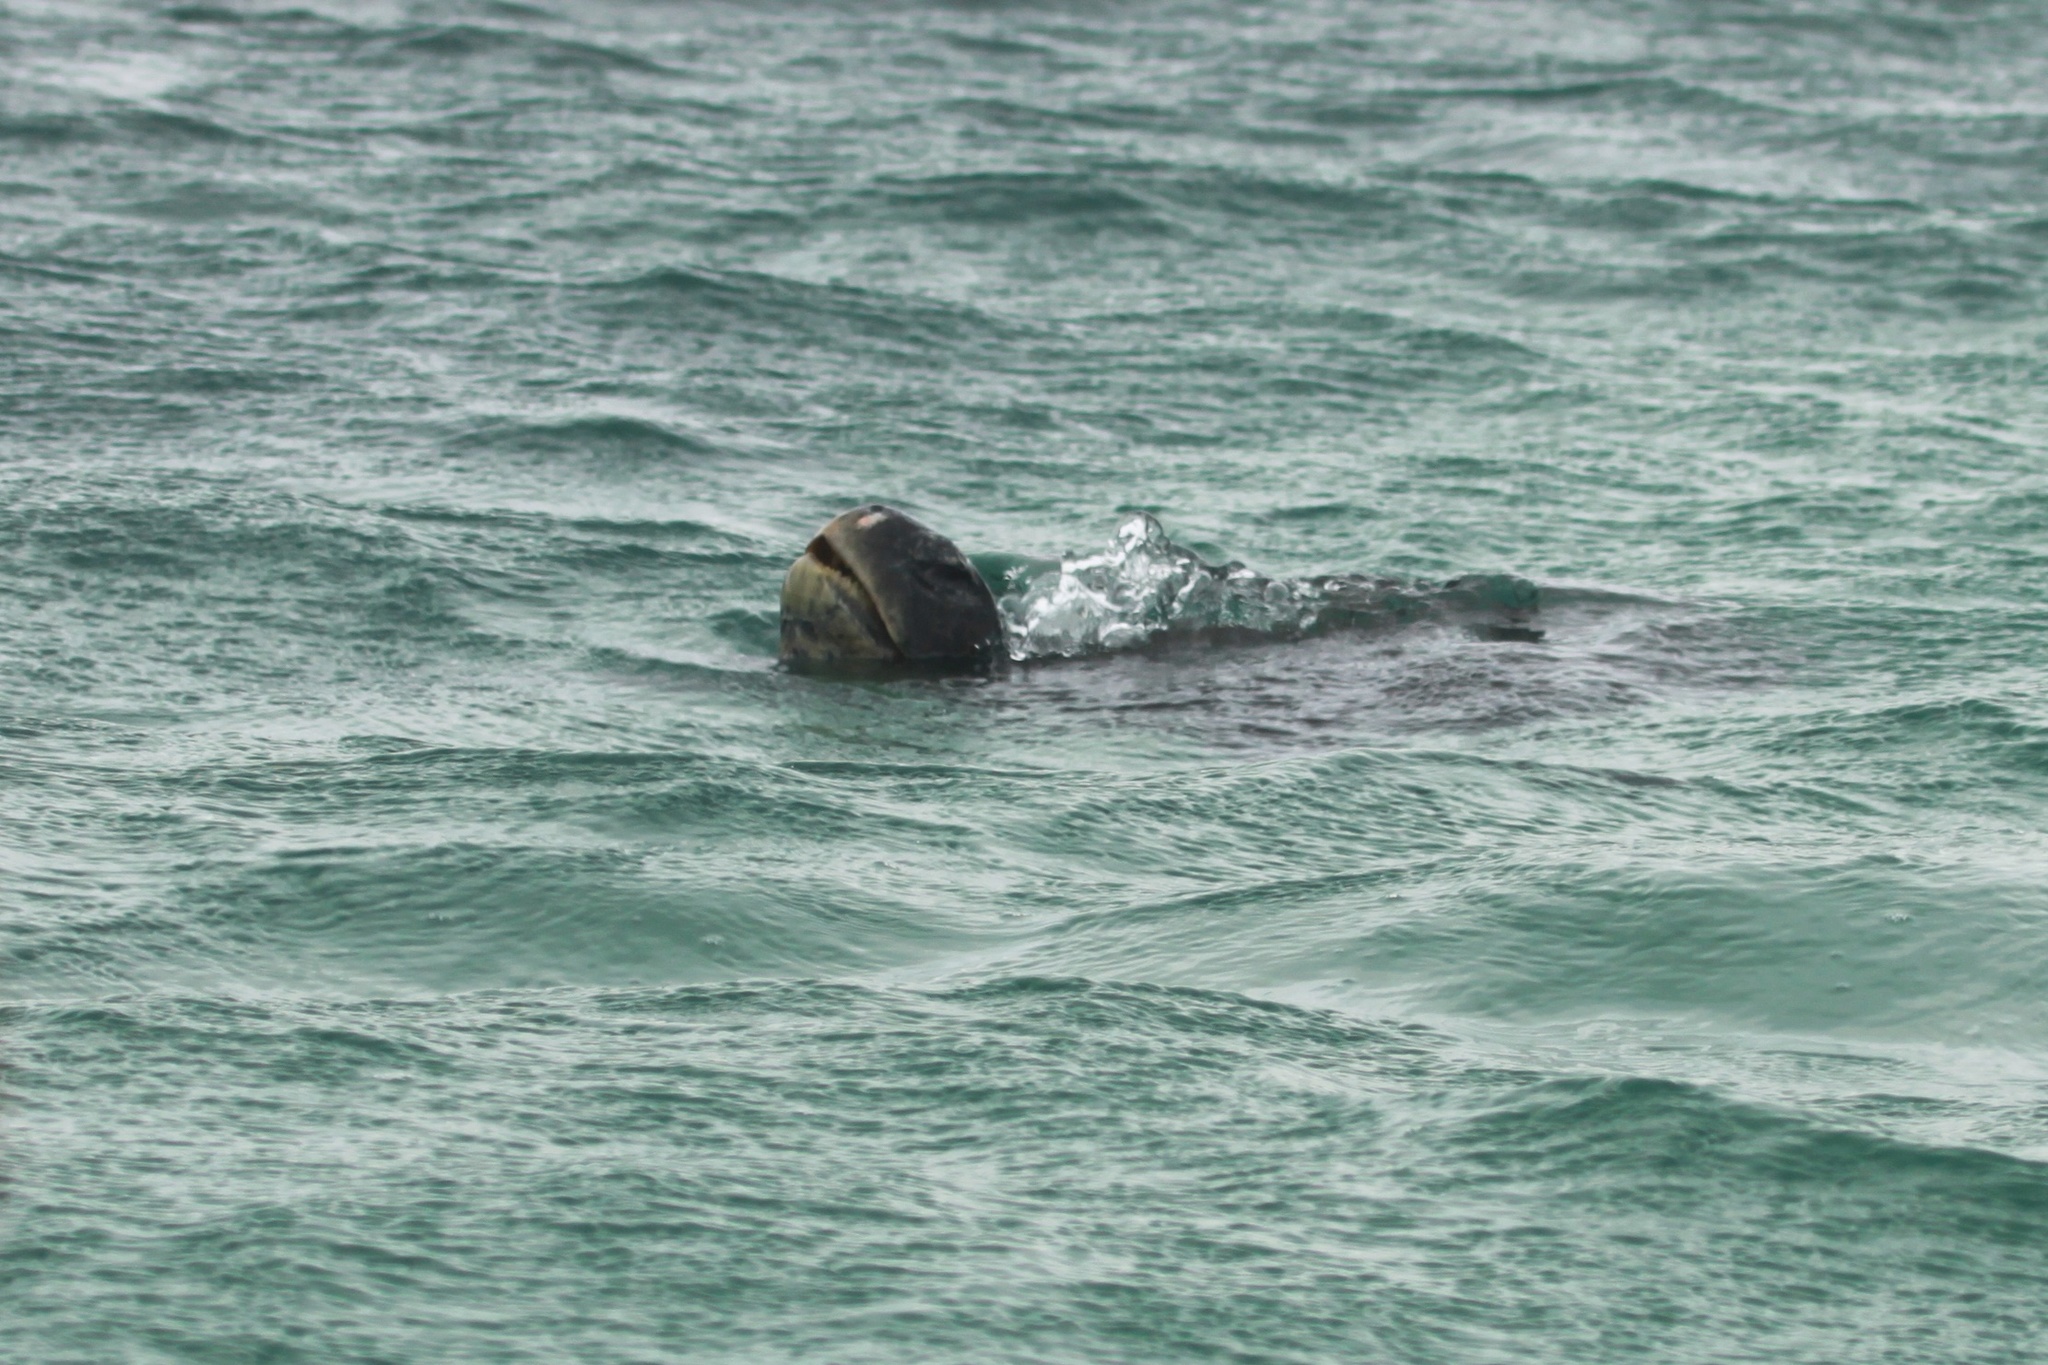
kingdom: Animalia
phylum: Chordata
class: Testudines
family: Cheloniidae
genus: Chelonia
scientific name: Chelonia mydas
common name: Green turtle
